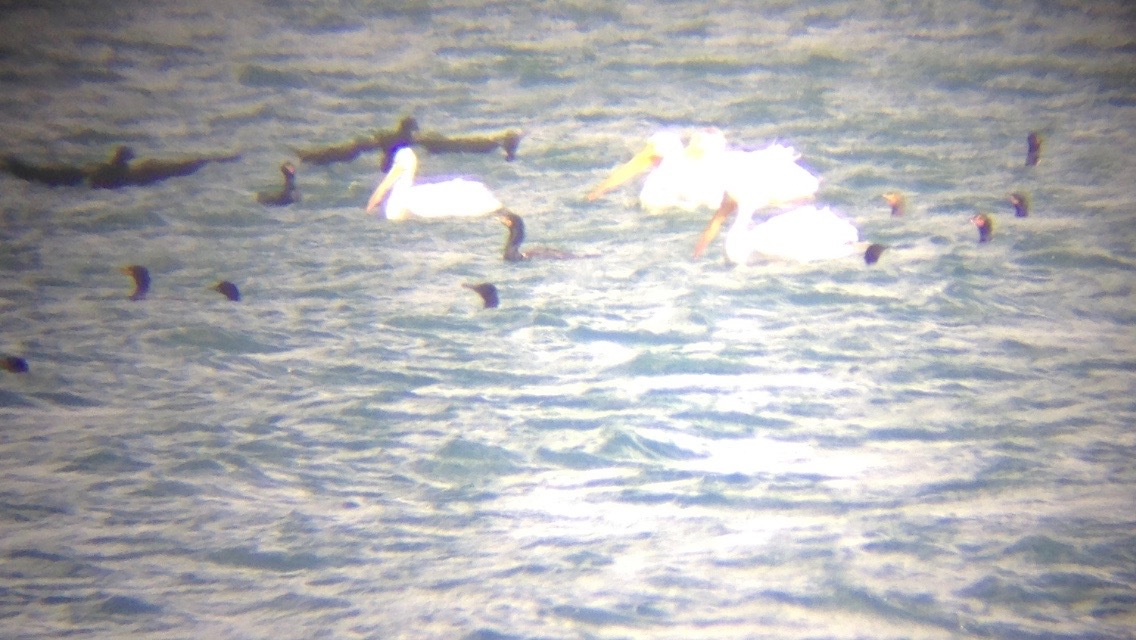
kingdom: Animalia
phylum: Chordata
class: Aves
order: Pelecaniformes
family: Pelecanidae
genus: Pelecanus
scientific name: Pelecanus erythrorhynchos
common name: American white pelican
